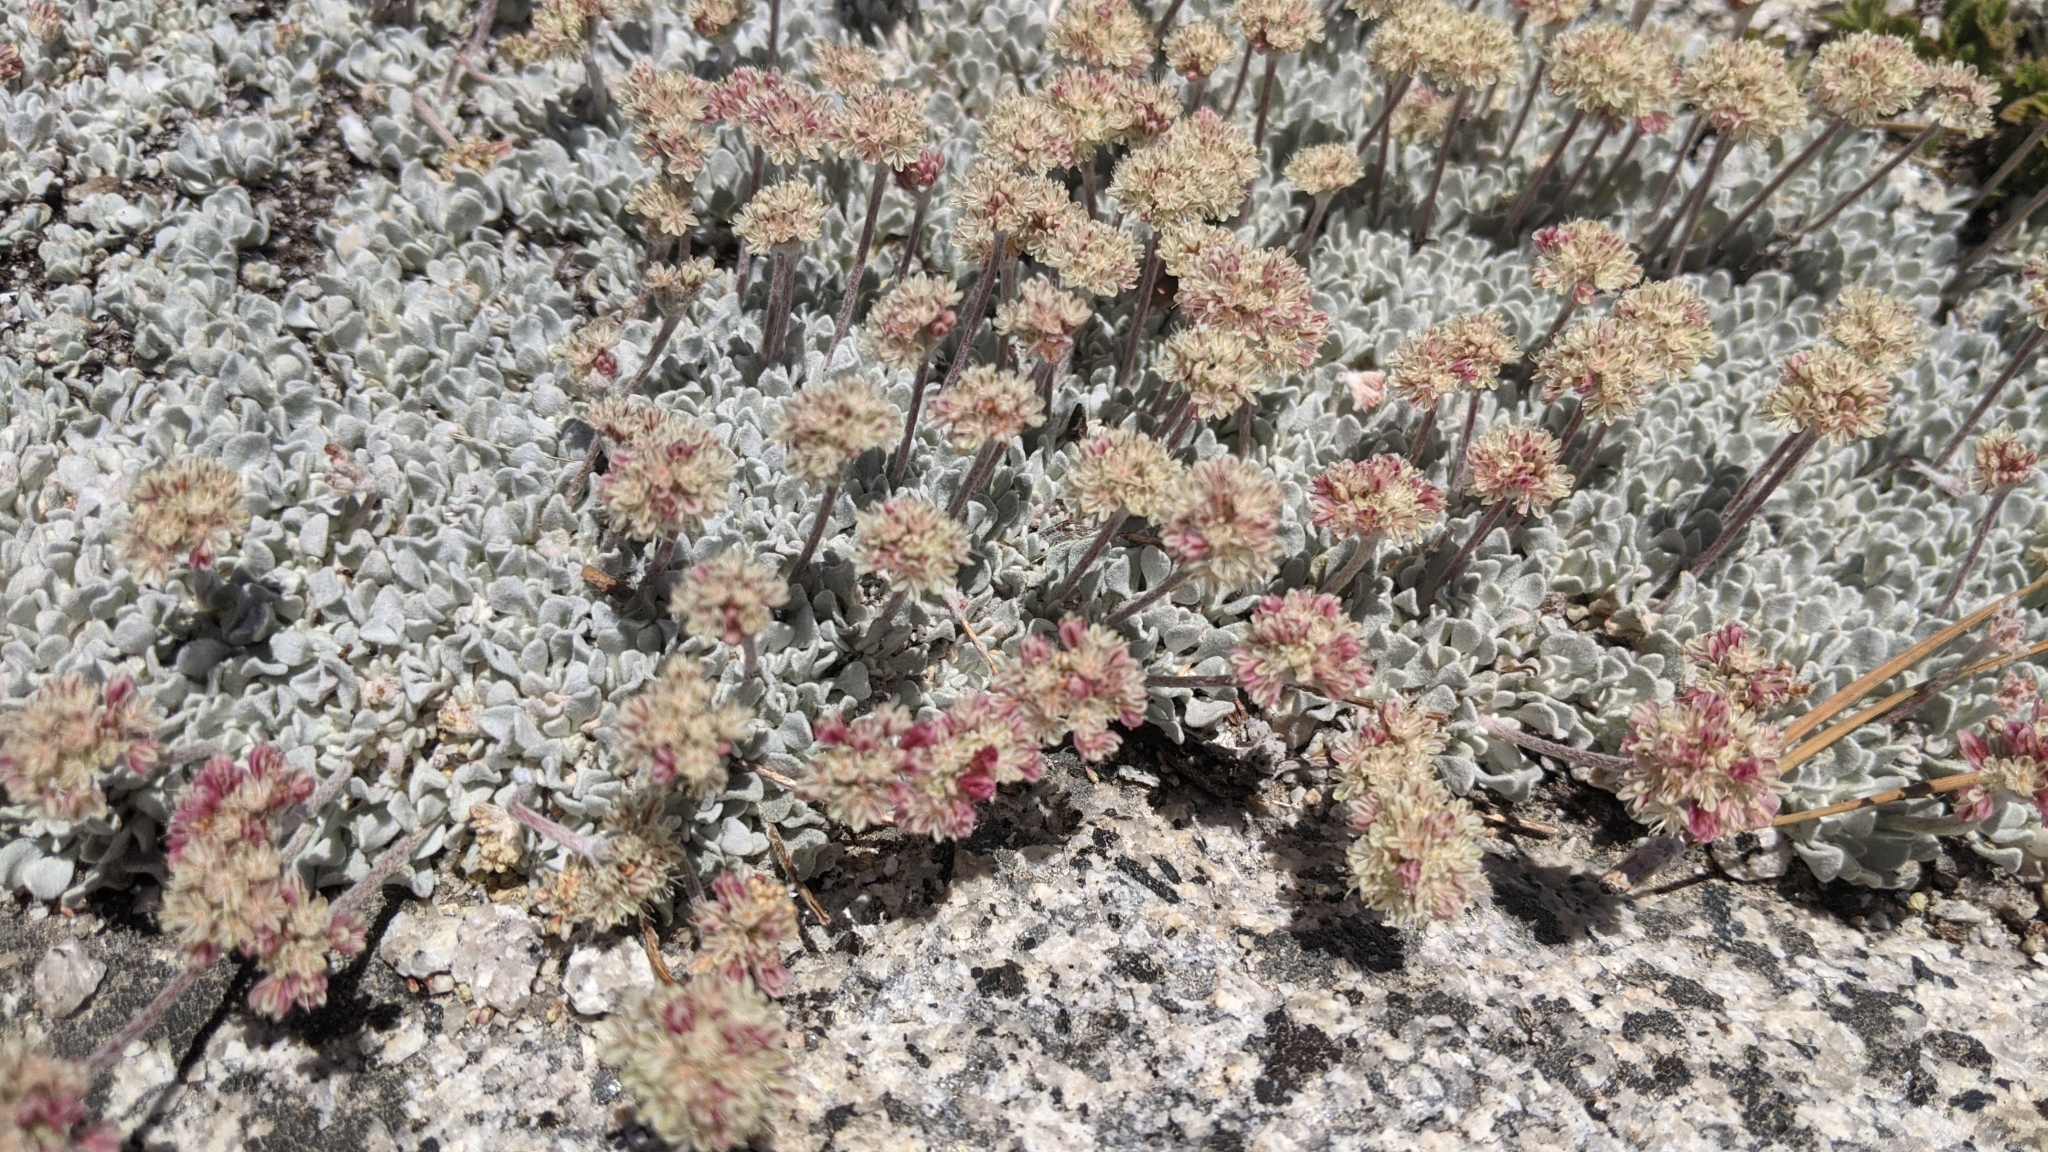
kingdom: Plantae
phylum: Tracheophyta
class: Magnoliopsida
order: Caryophyllales
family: Polygonaceae
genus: Eriogonum
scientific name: Eriogonum ovalifolium
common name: Cushion buckwheat
